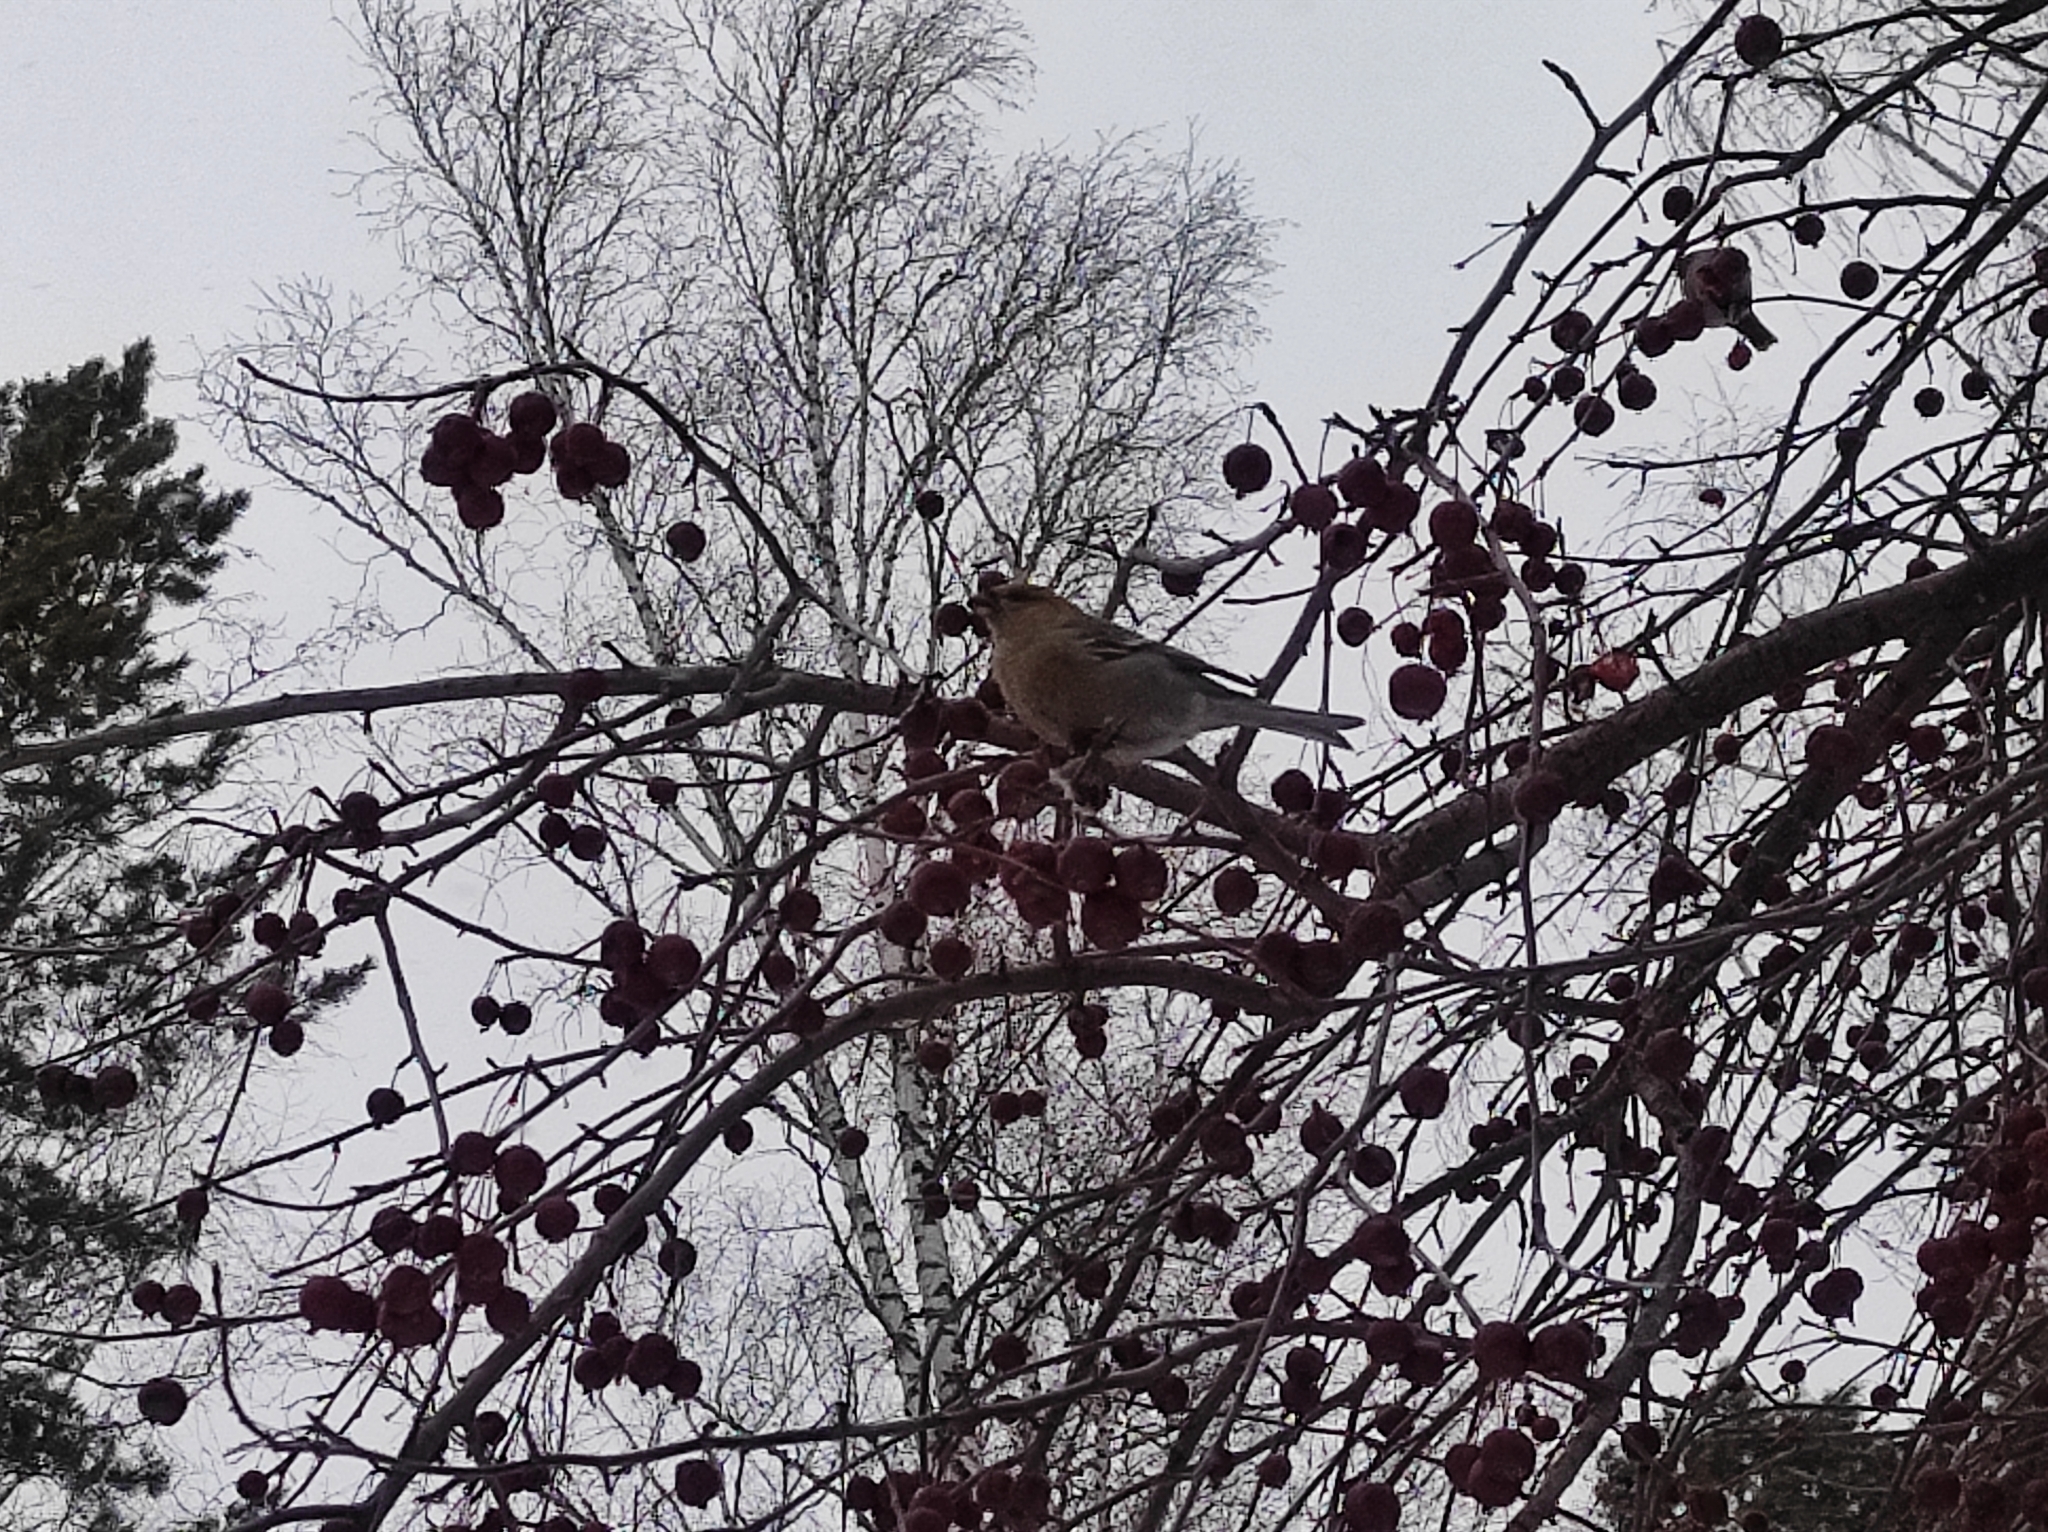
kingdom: Animalia
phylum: Chordata
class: Aves
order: Passeriformes
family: Fringillidae
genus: Pinicola
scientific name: Pinicola enucleator
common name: Pine grosbeak
